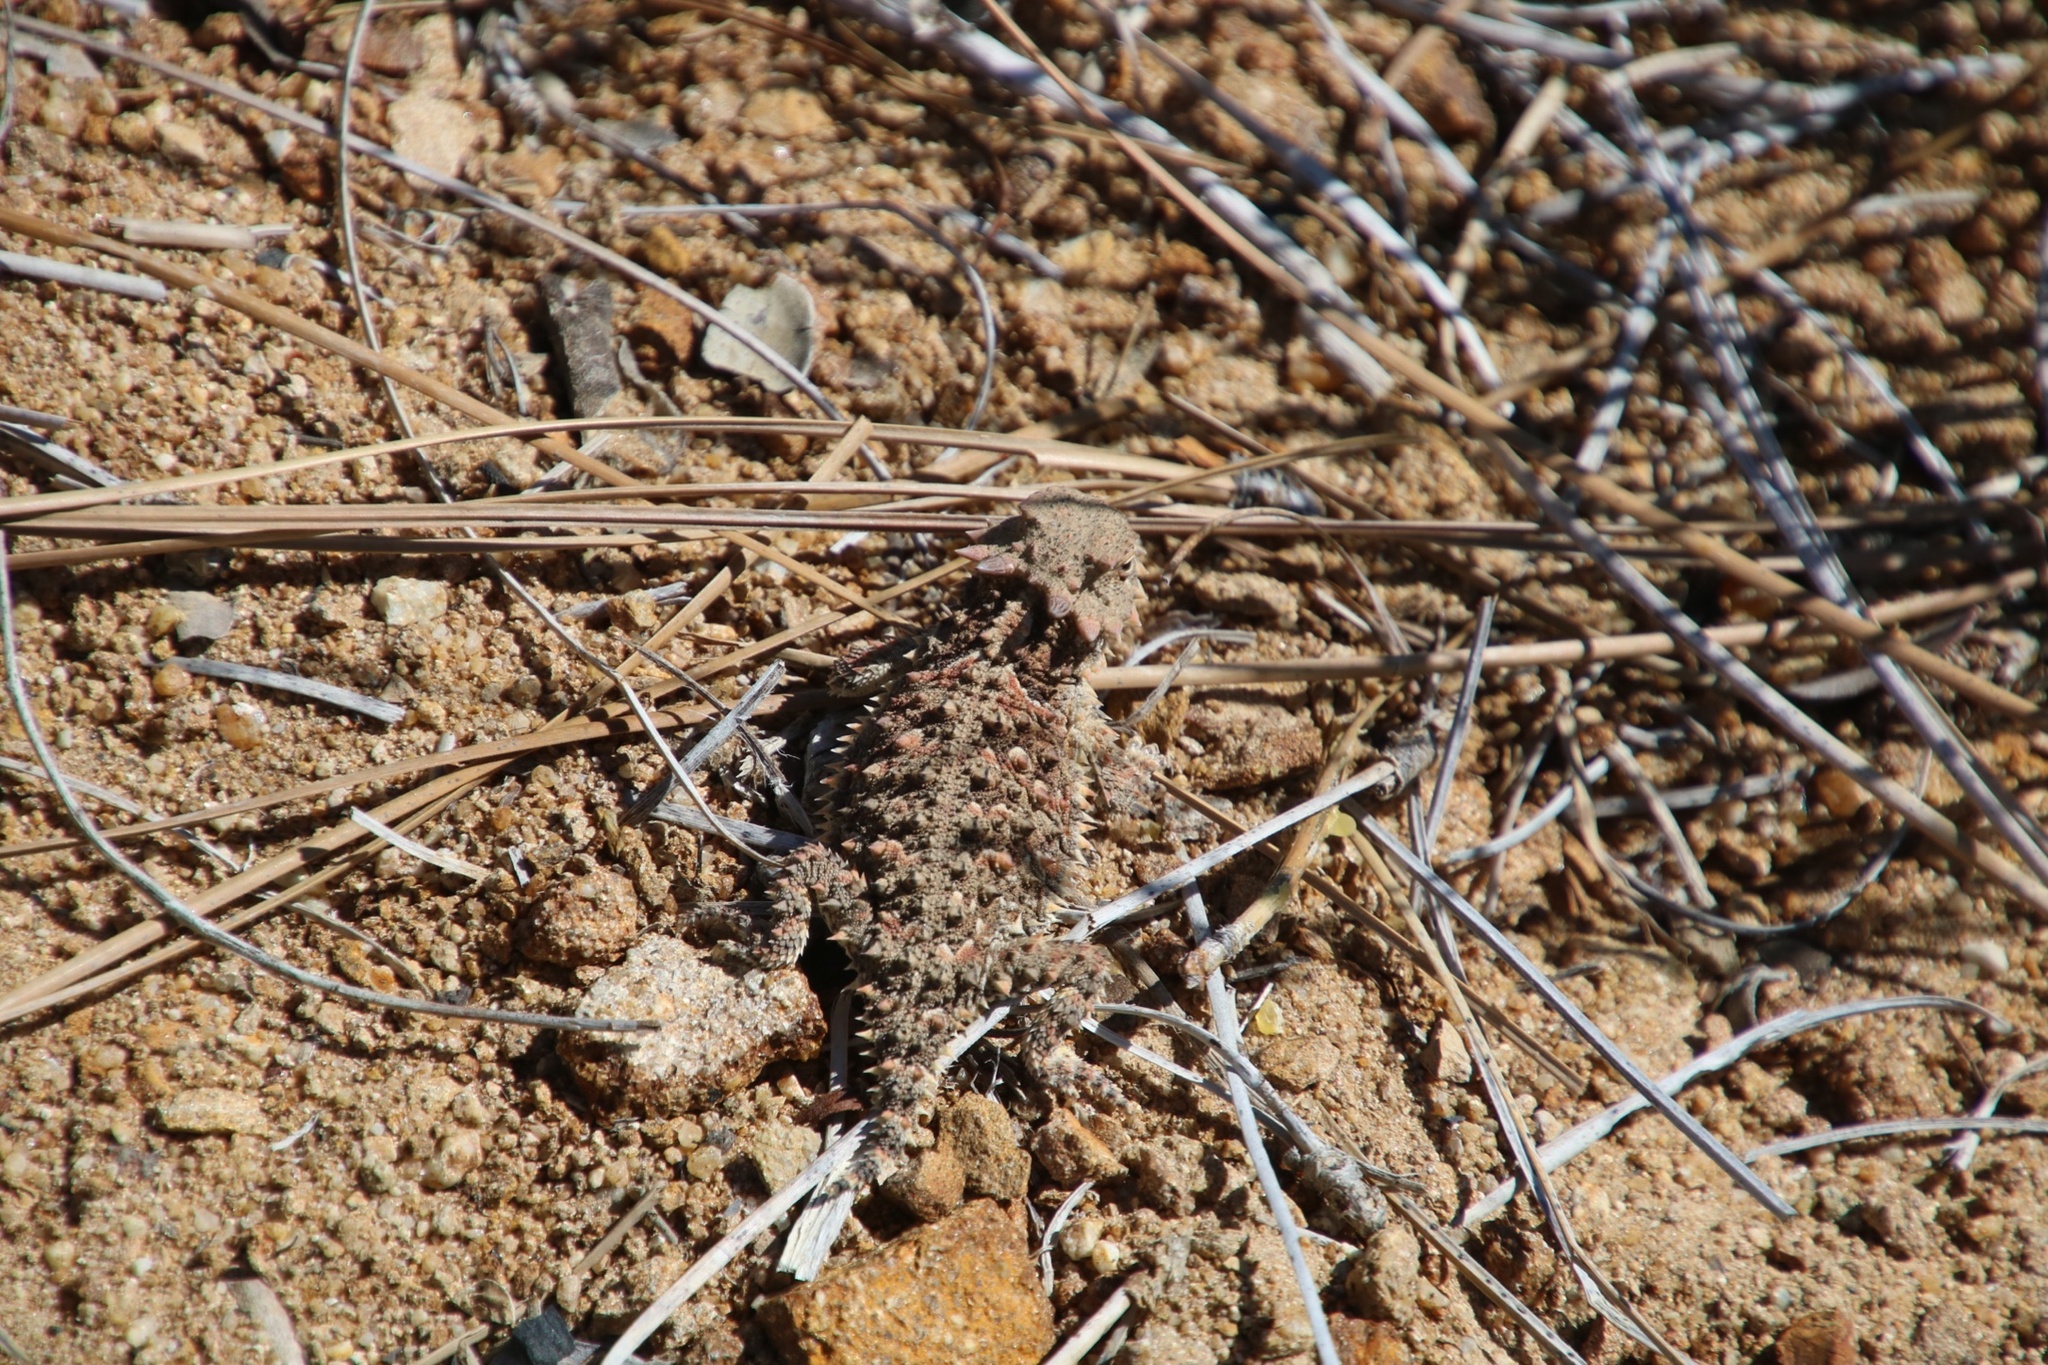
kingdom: Animalia
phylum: Chordata
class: Squamata
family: Phrynosomatidae
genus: Phrynosoma
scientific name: Phrynosoma blainvillii
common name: San diego horned lizard
